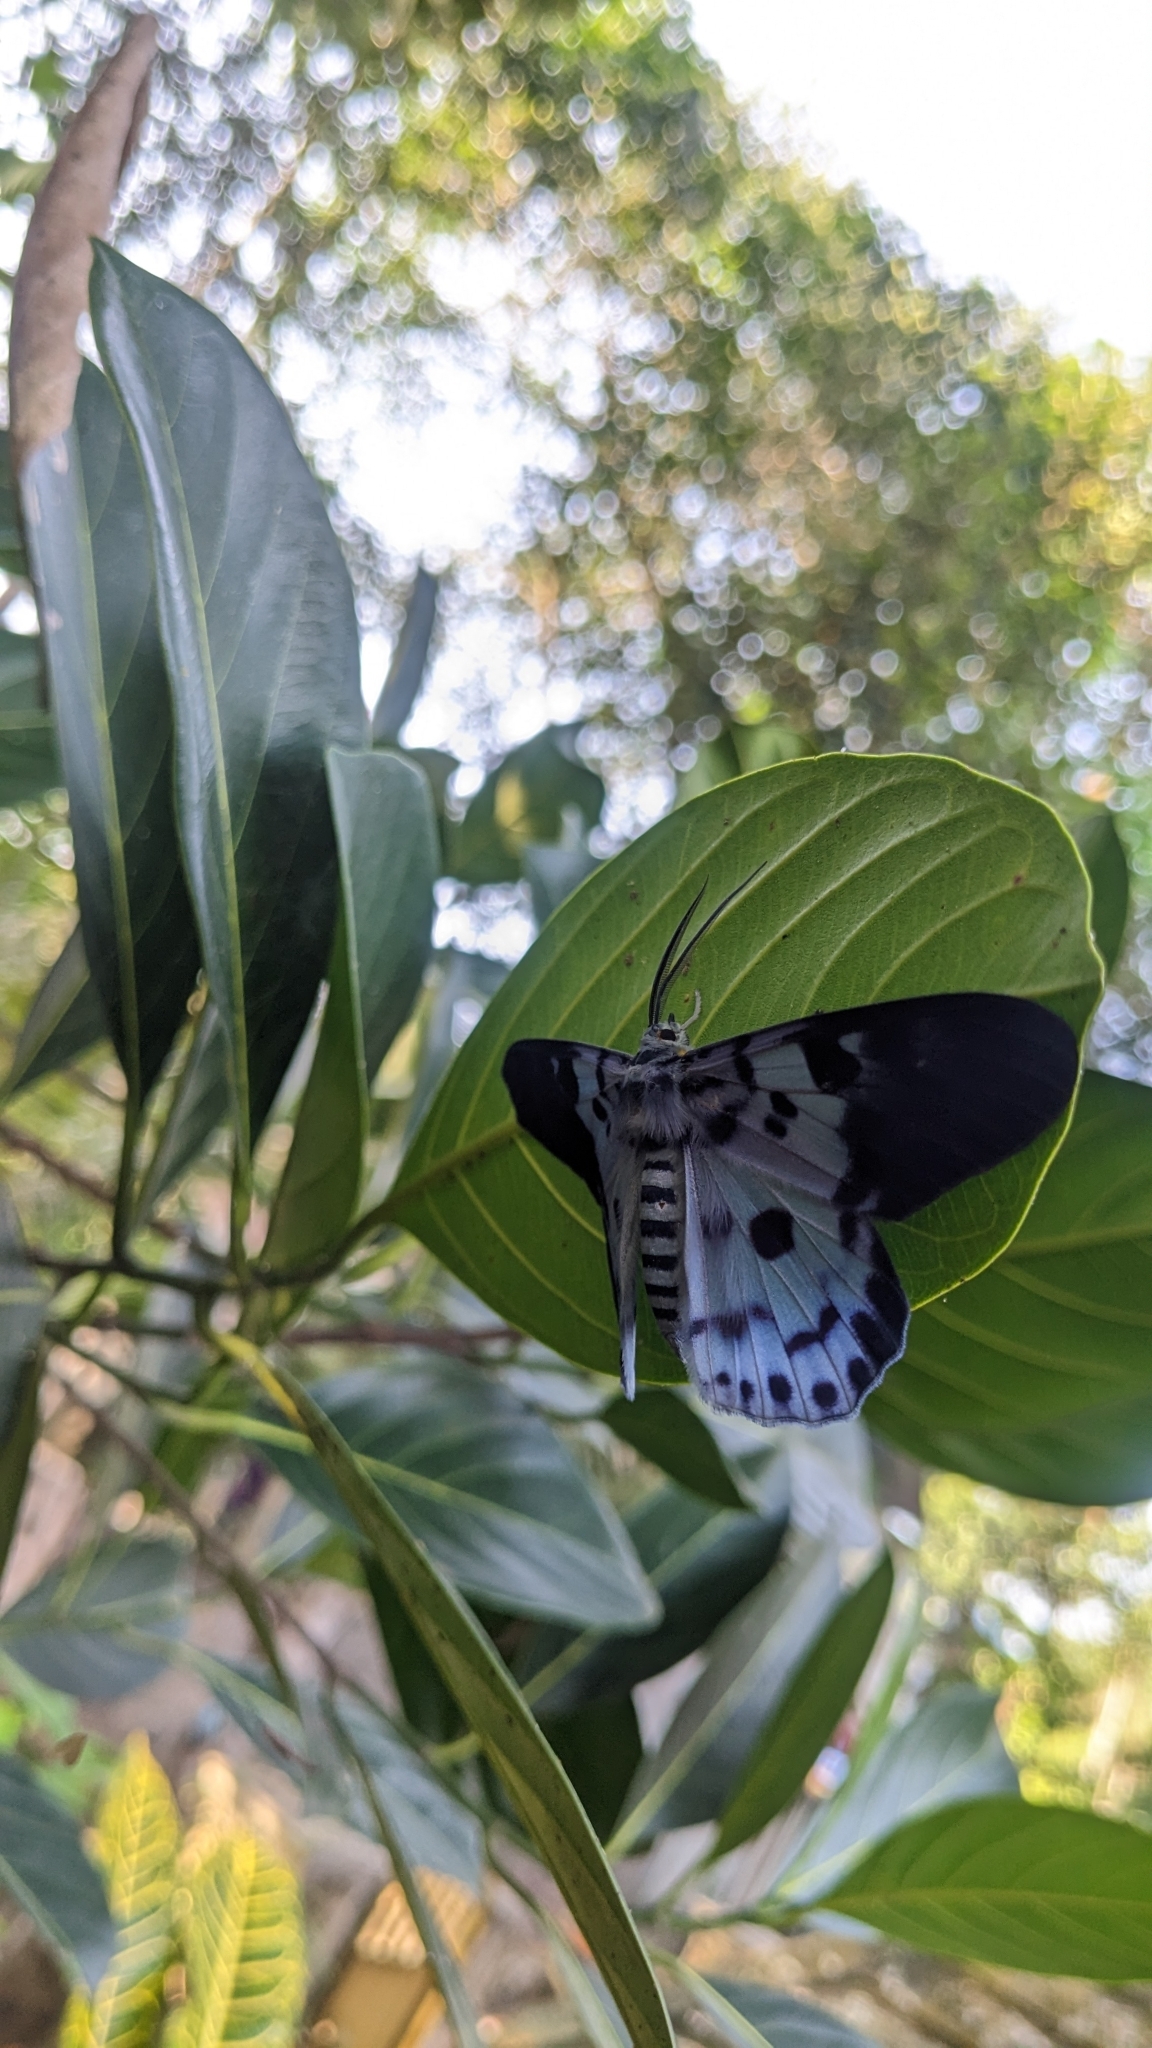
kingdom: Animalia
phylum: Arthropoda
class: Insecta
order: Lepidoptera
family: Geometridae
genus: Dysphania
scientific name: Dysphania percota
